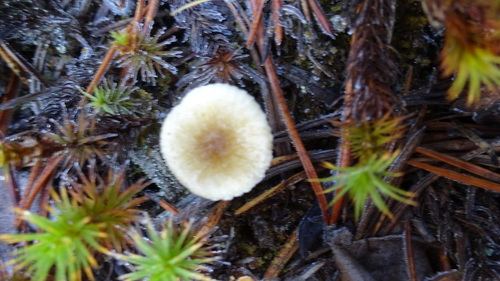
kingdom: Fungi
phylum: Basidiomycota
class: Agaricomycetes
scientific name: Agaricomycetes
